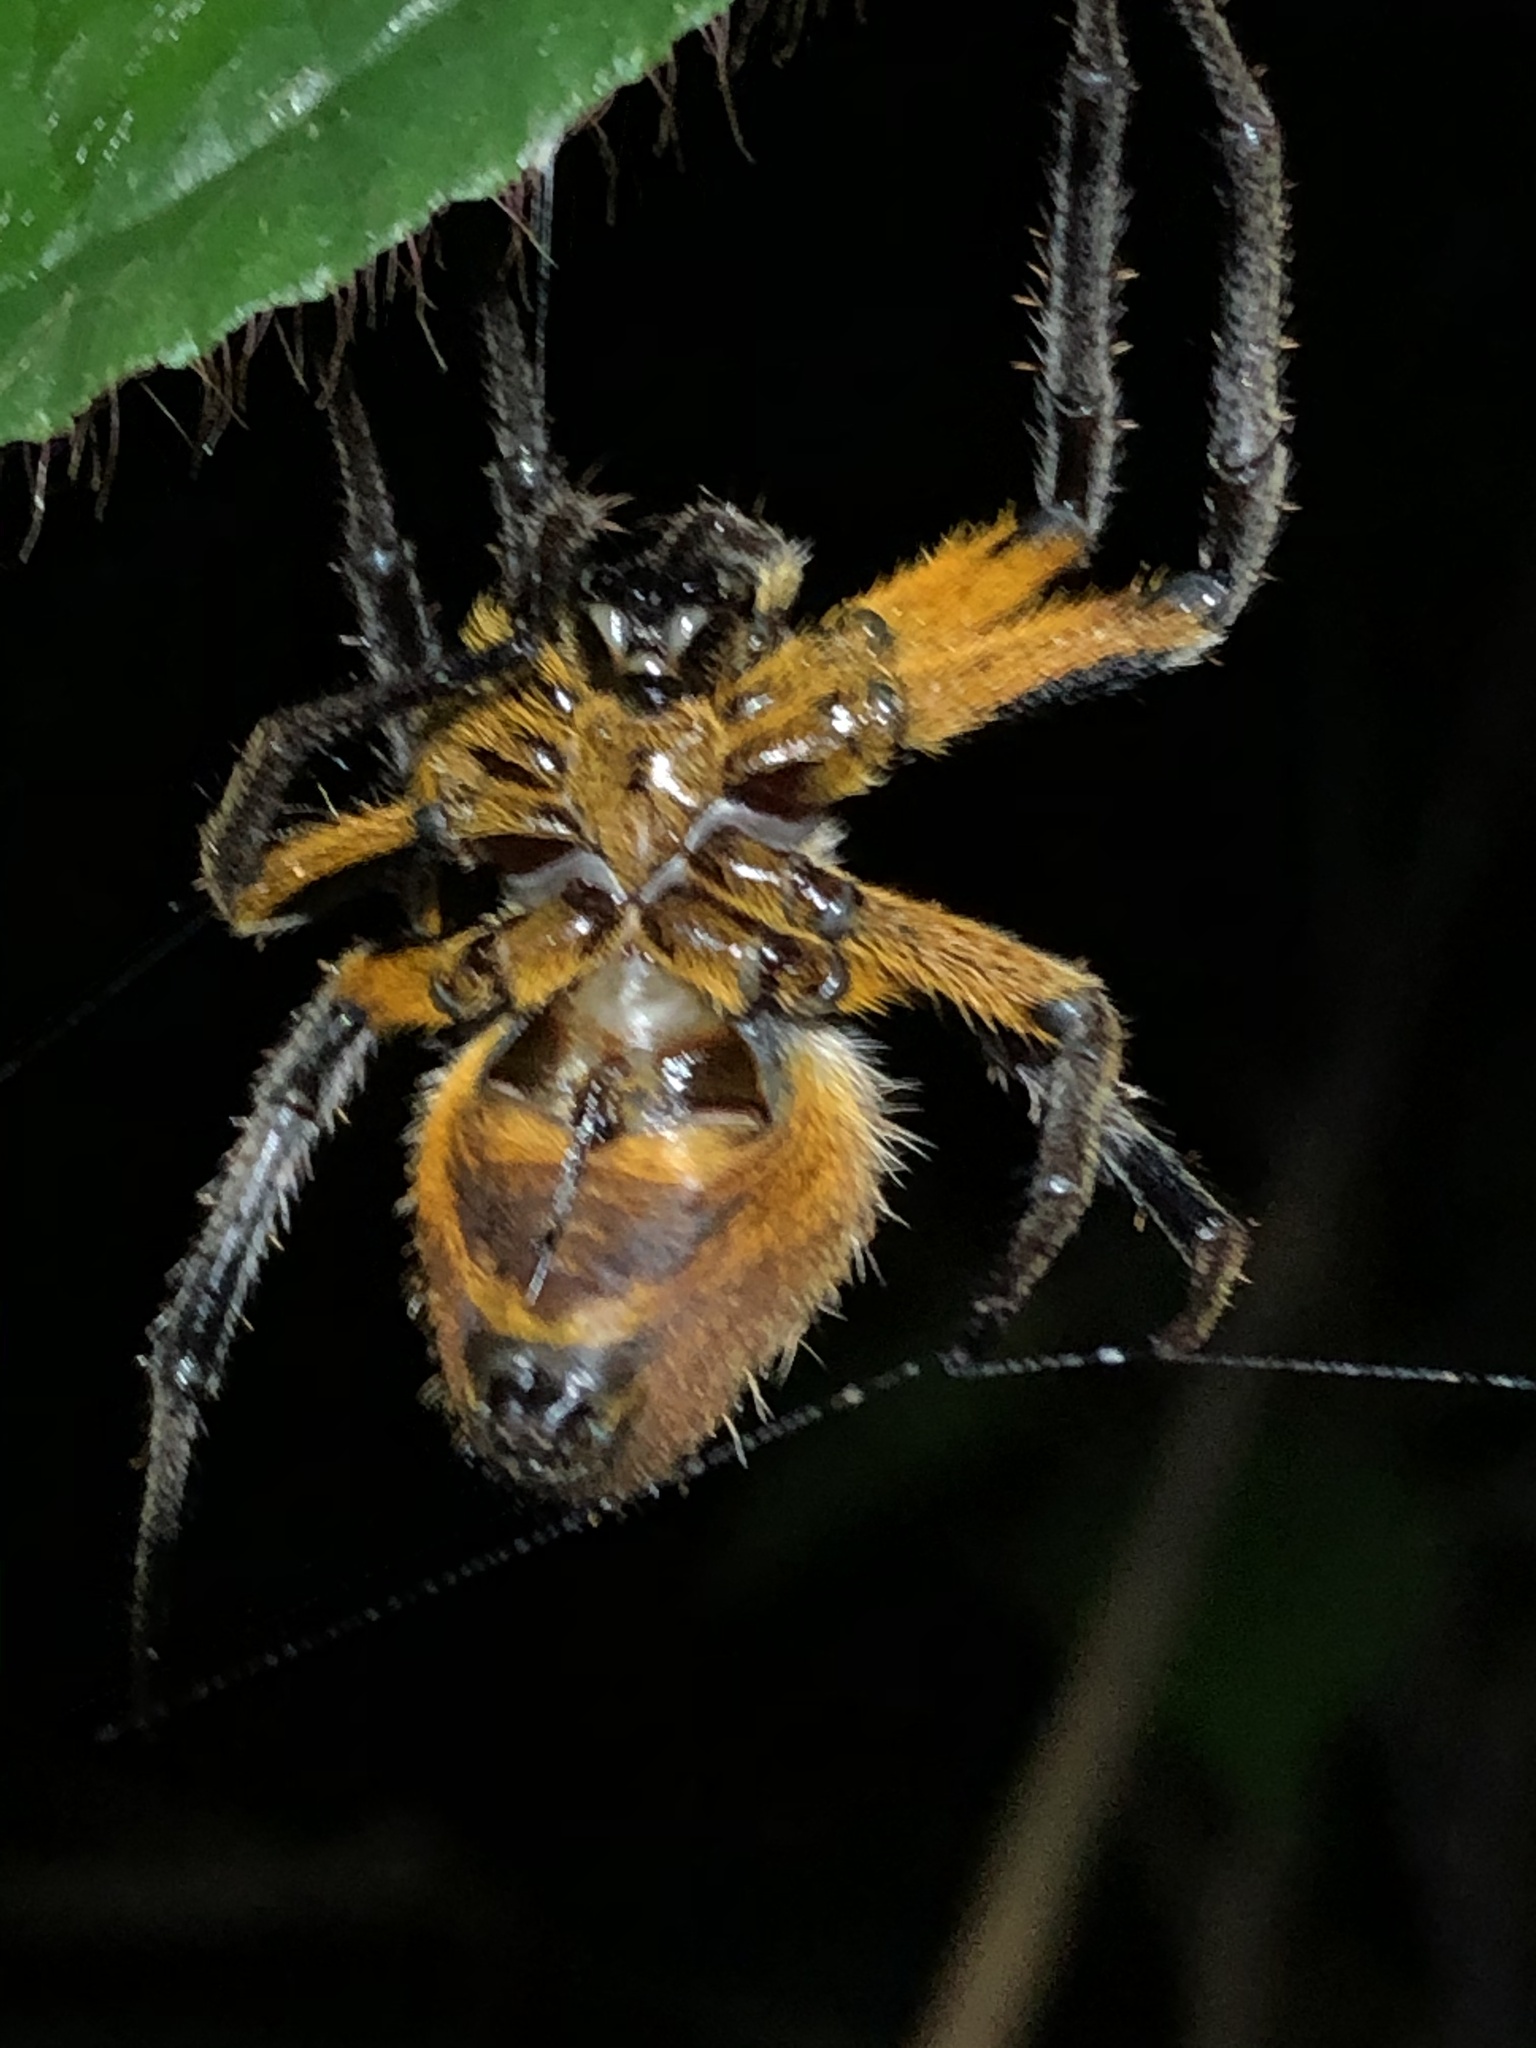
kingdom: Animalia
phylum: Arthropoda
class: Arachnida
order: Araneae
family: Araneidae
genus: Eriophora
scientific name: Eriophora fuliginea
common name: Orb weavers
